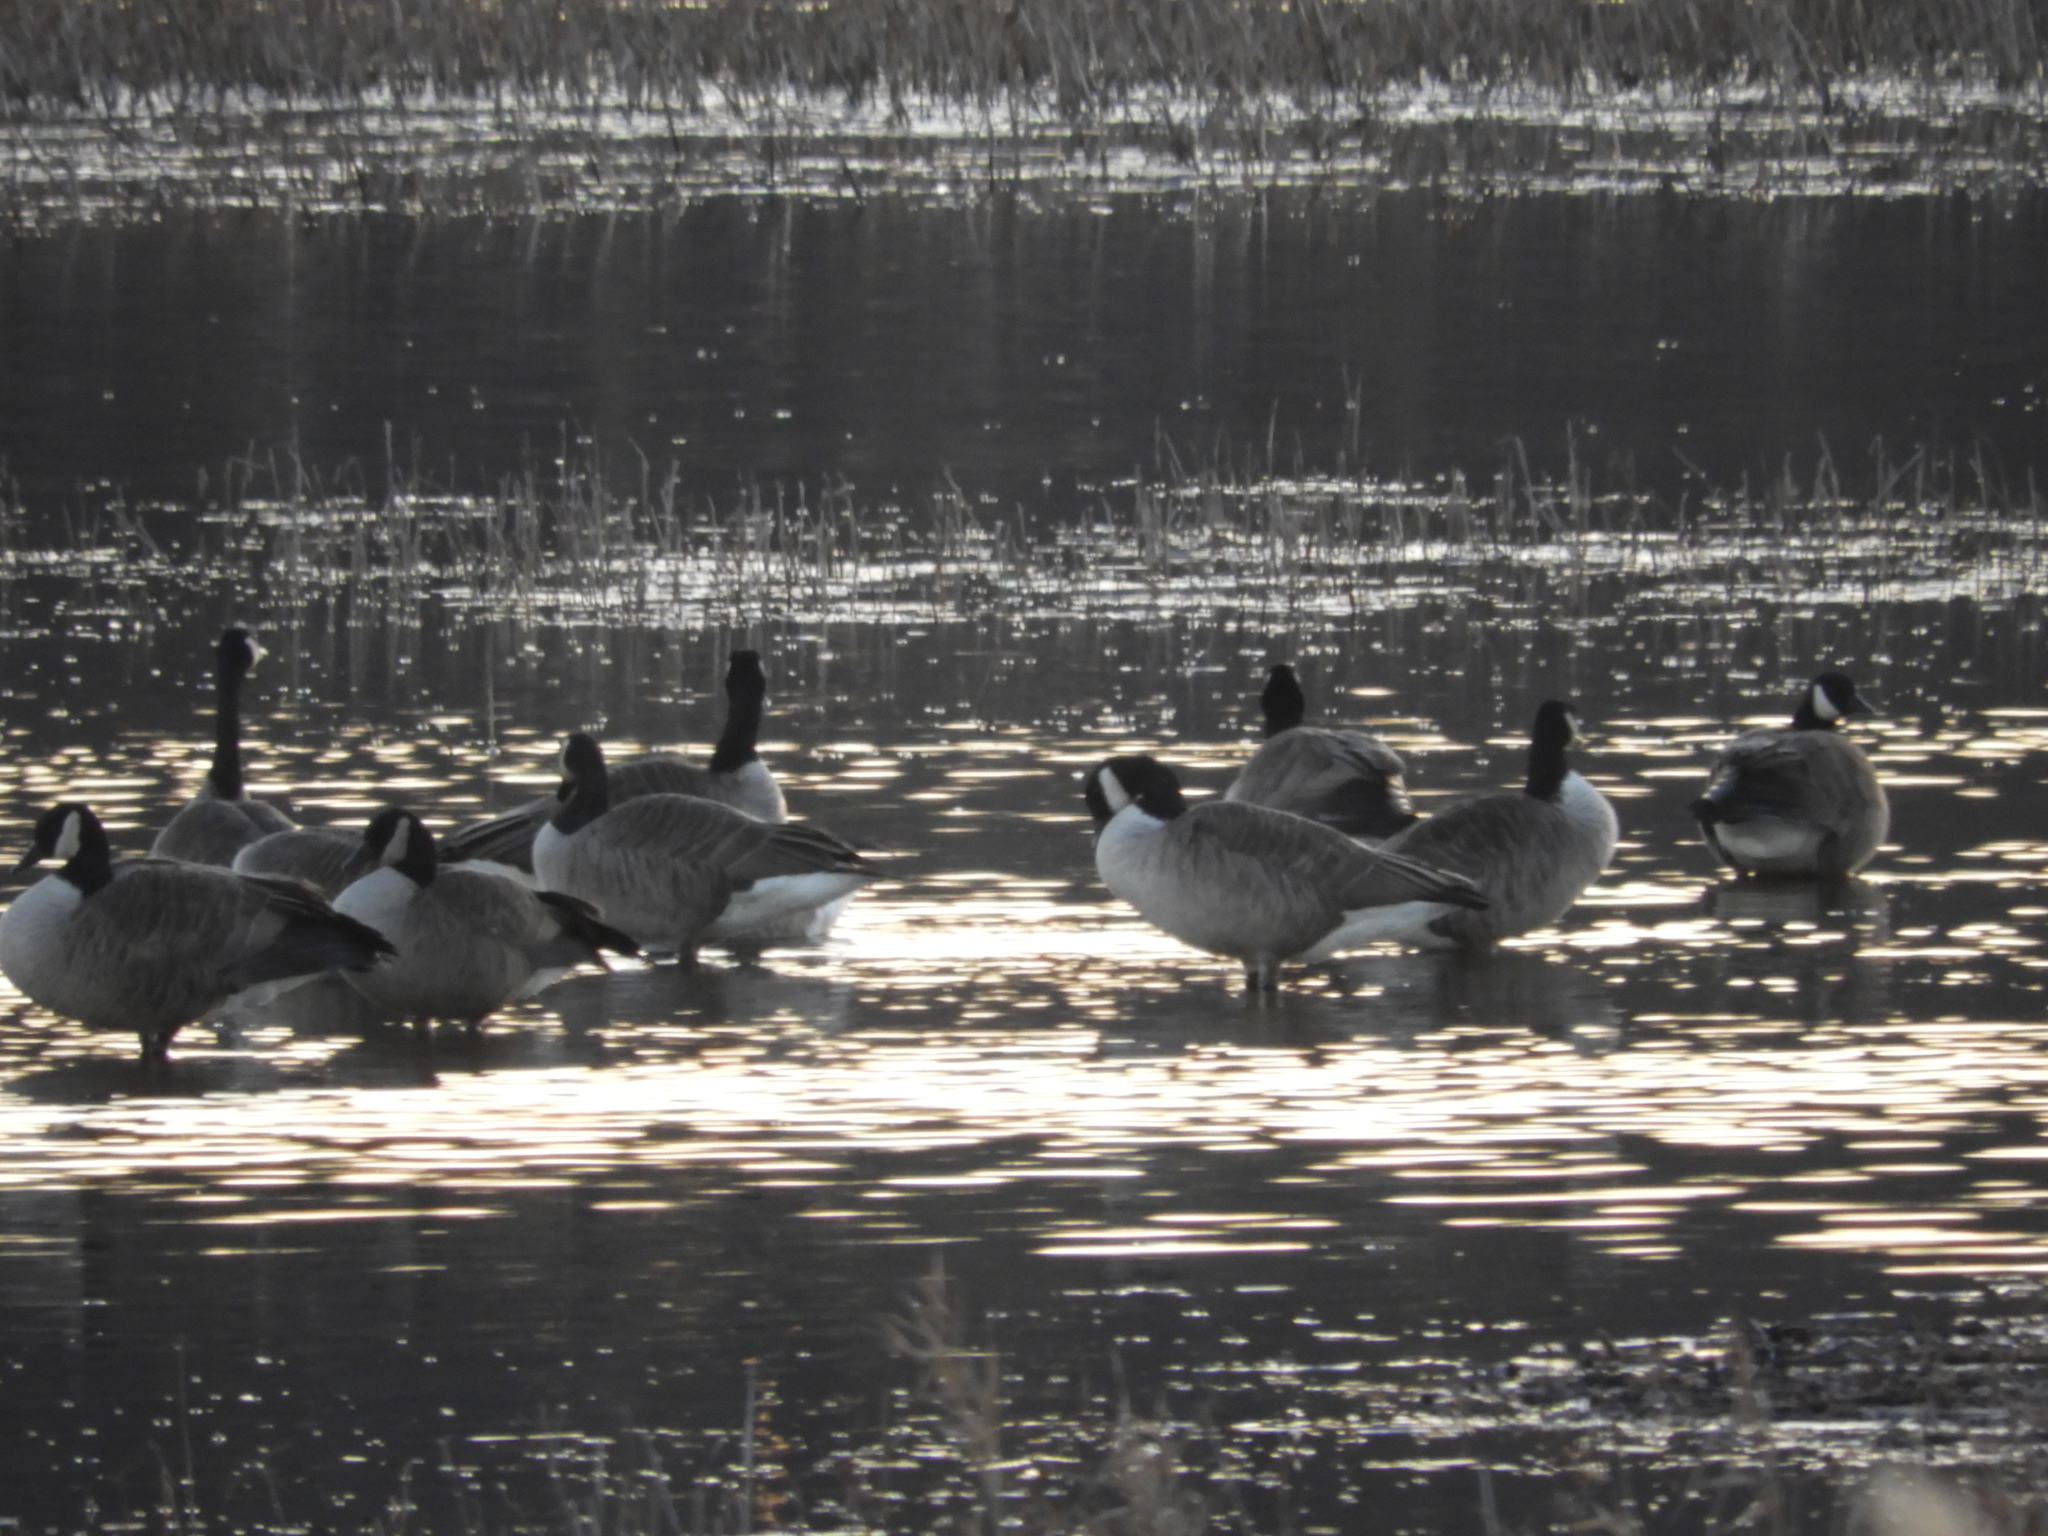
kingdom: Animalia
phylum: Chordata
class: Aves
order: Anseriformes
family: Anatidae
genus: Branta
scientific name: Branta canadensis
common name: Canada goose
